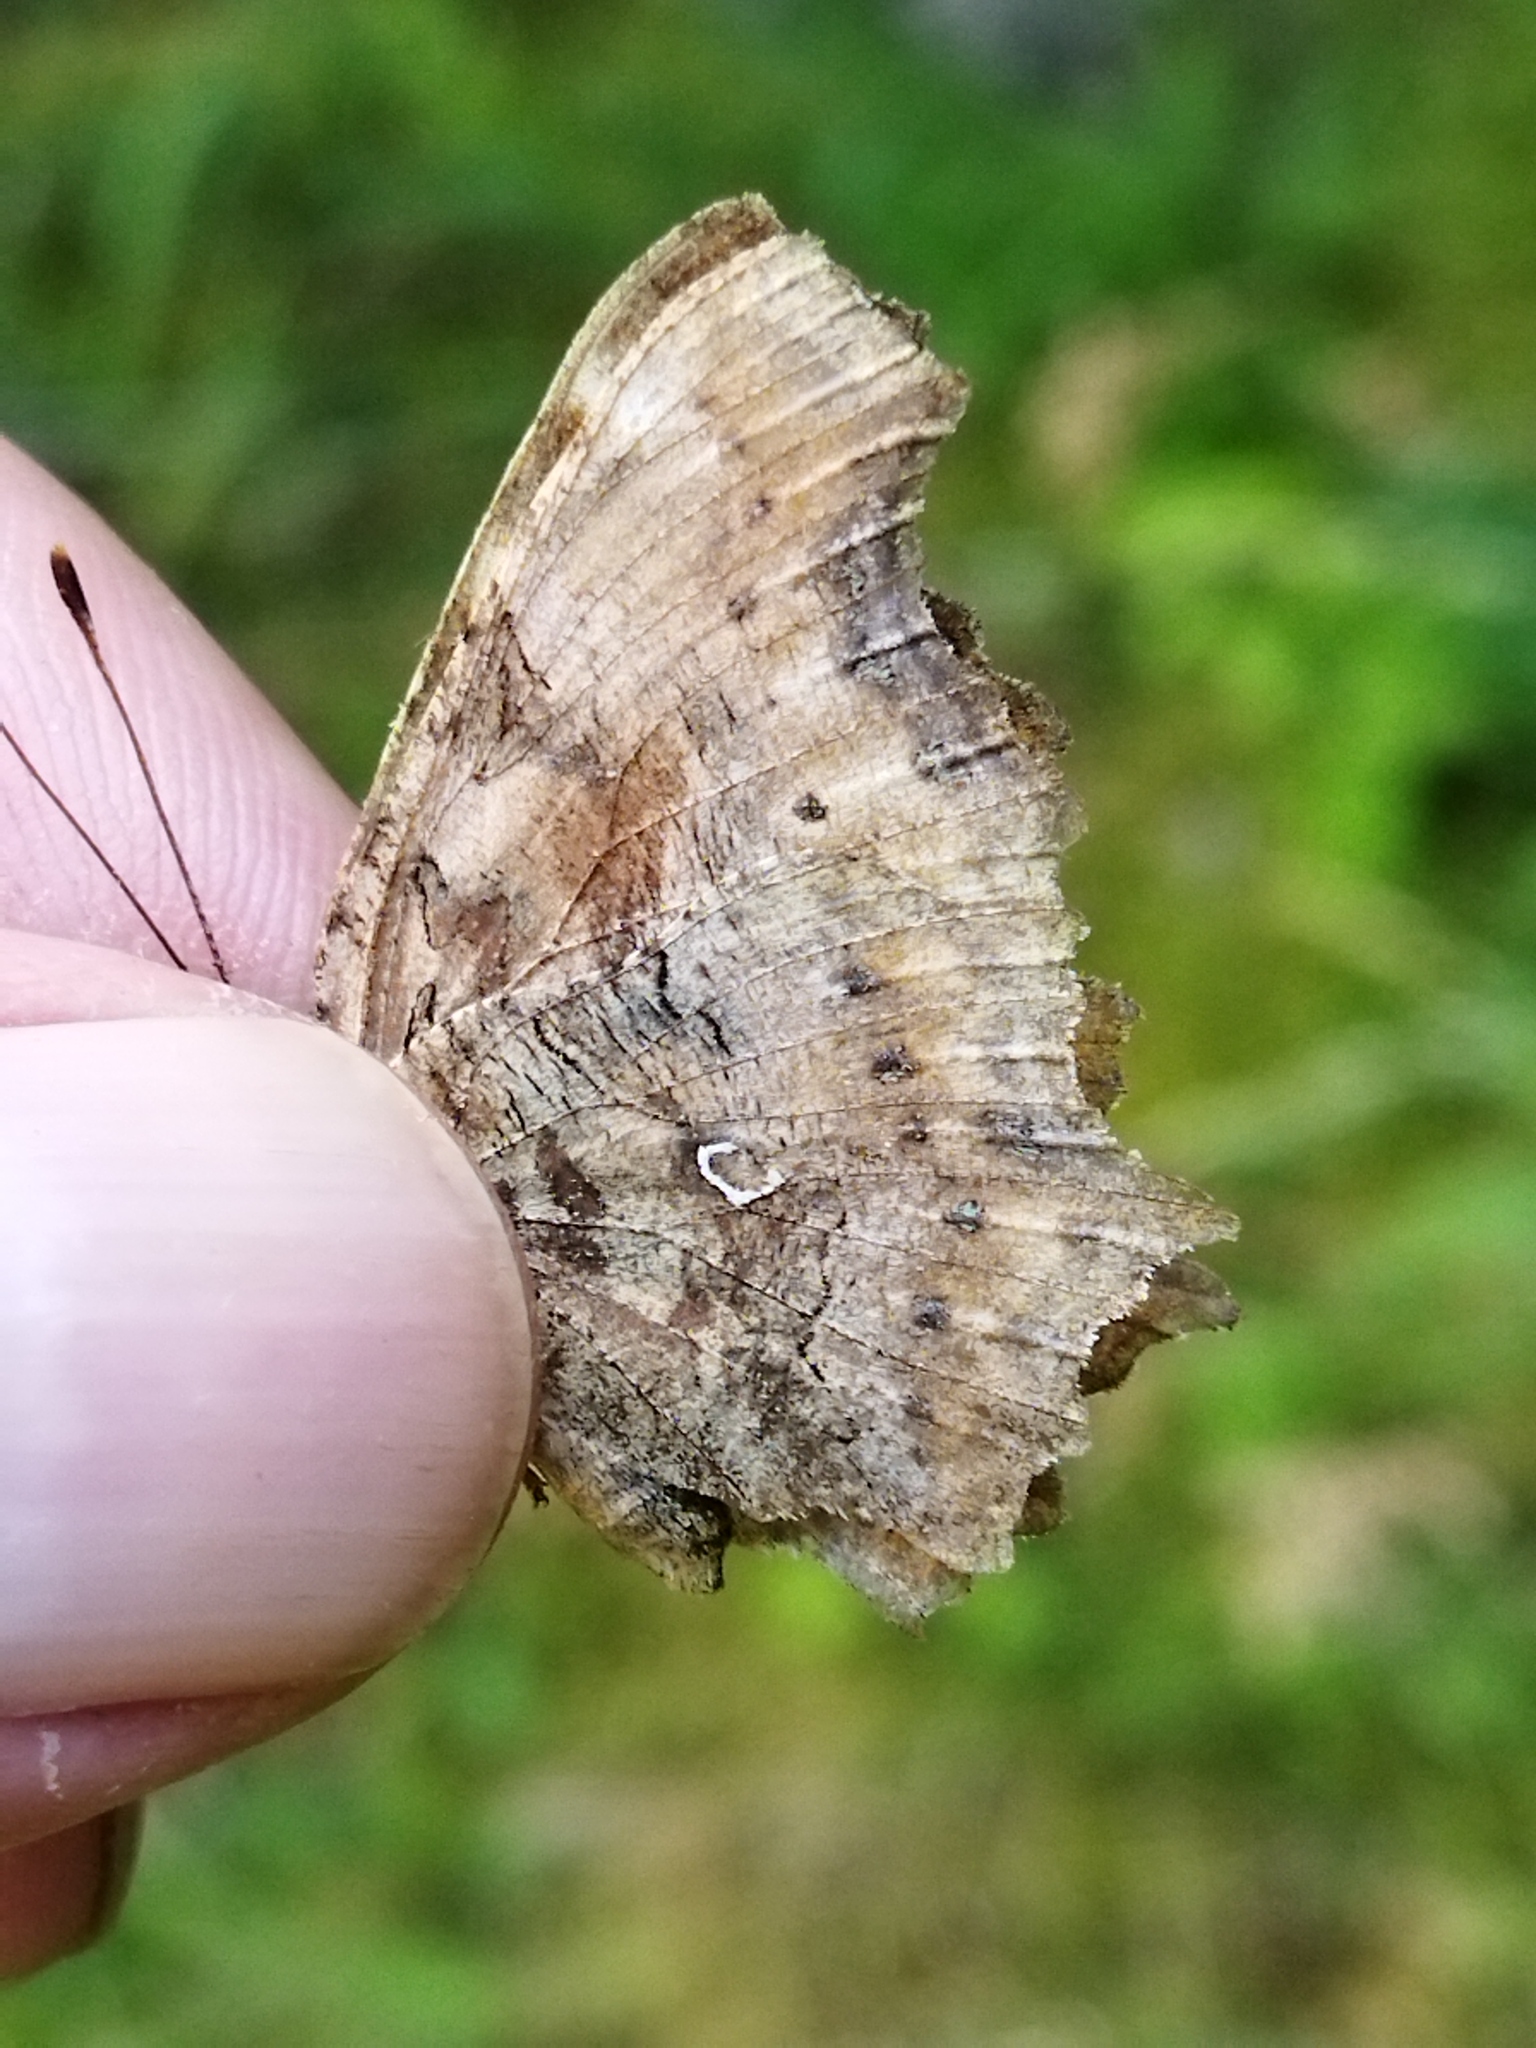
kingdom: Animalia
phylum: Arthropoda
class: Insecta
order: Lepidoptera
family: Nymphalidae
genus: Polygonia
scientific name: Polygonia c-album
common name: Comma
